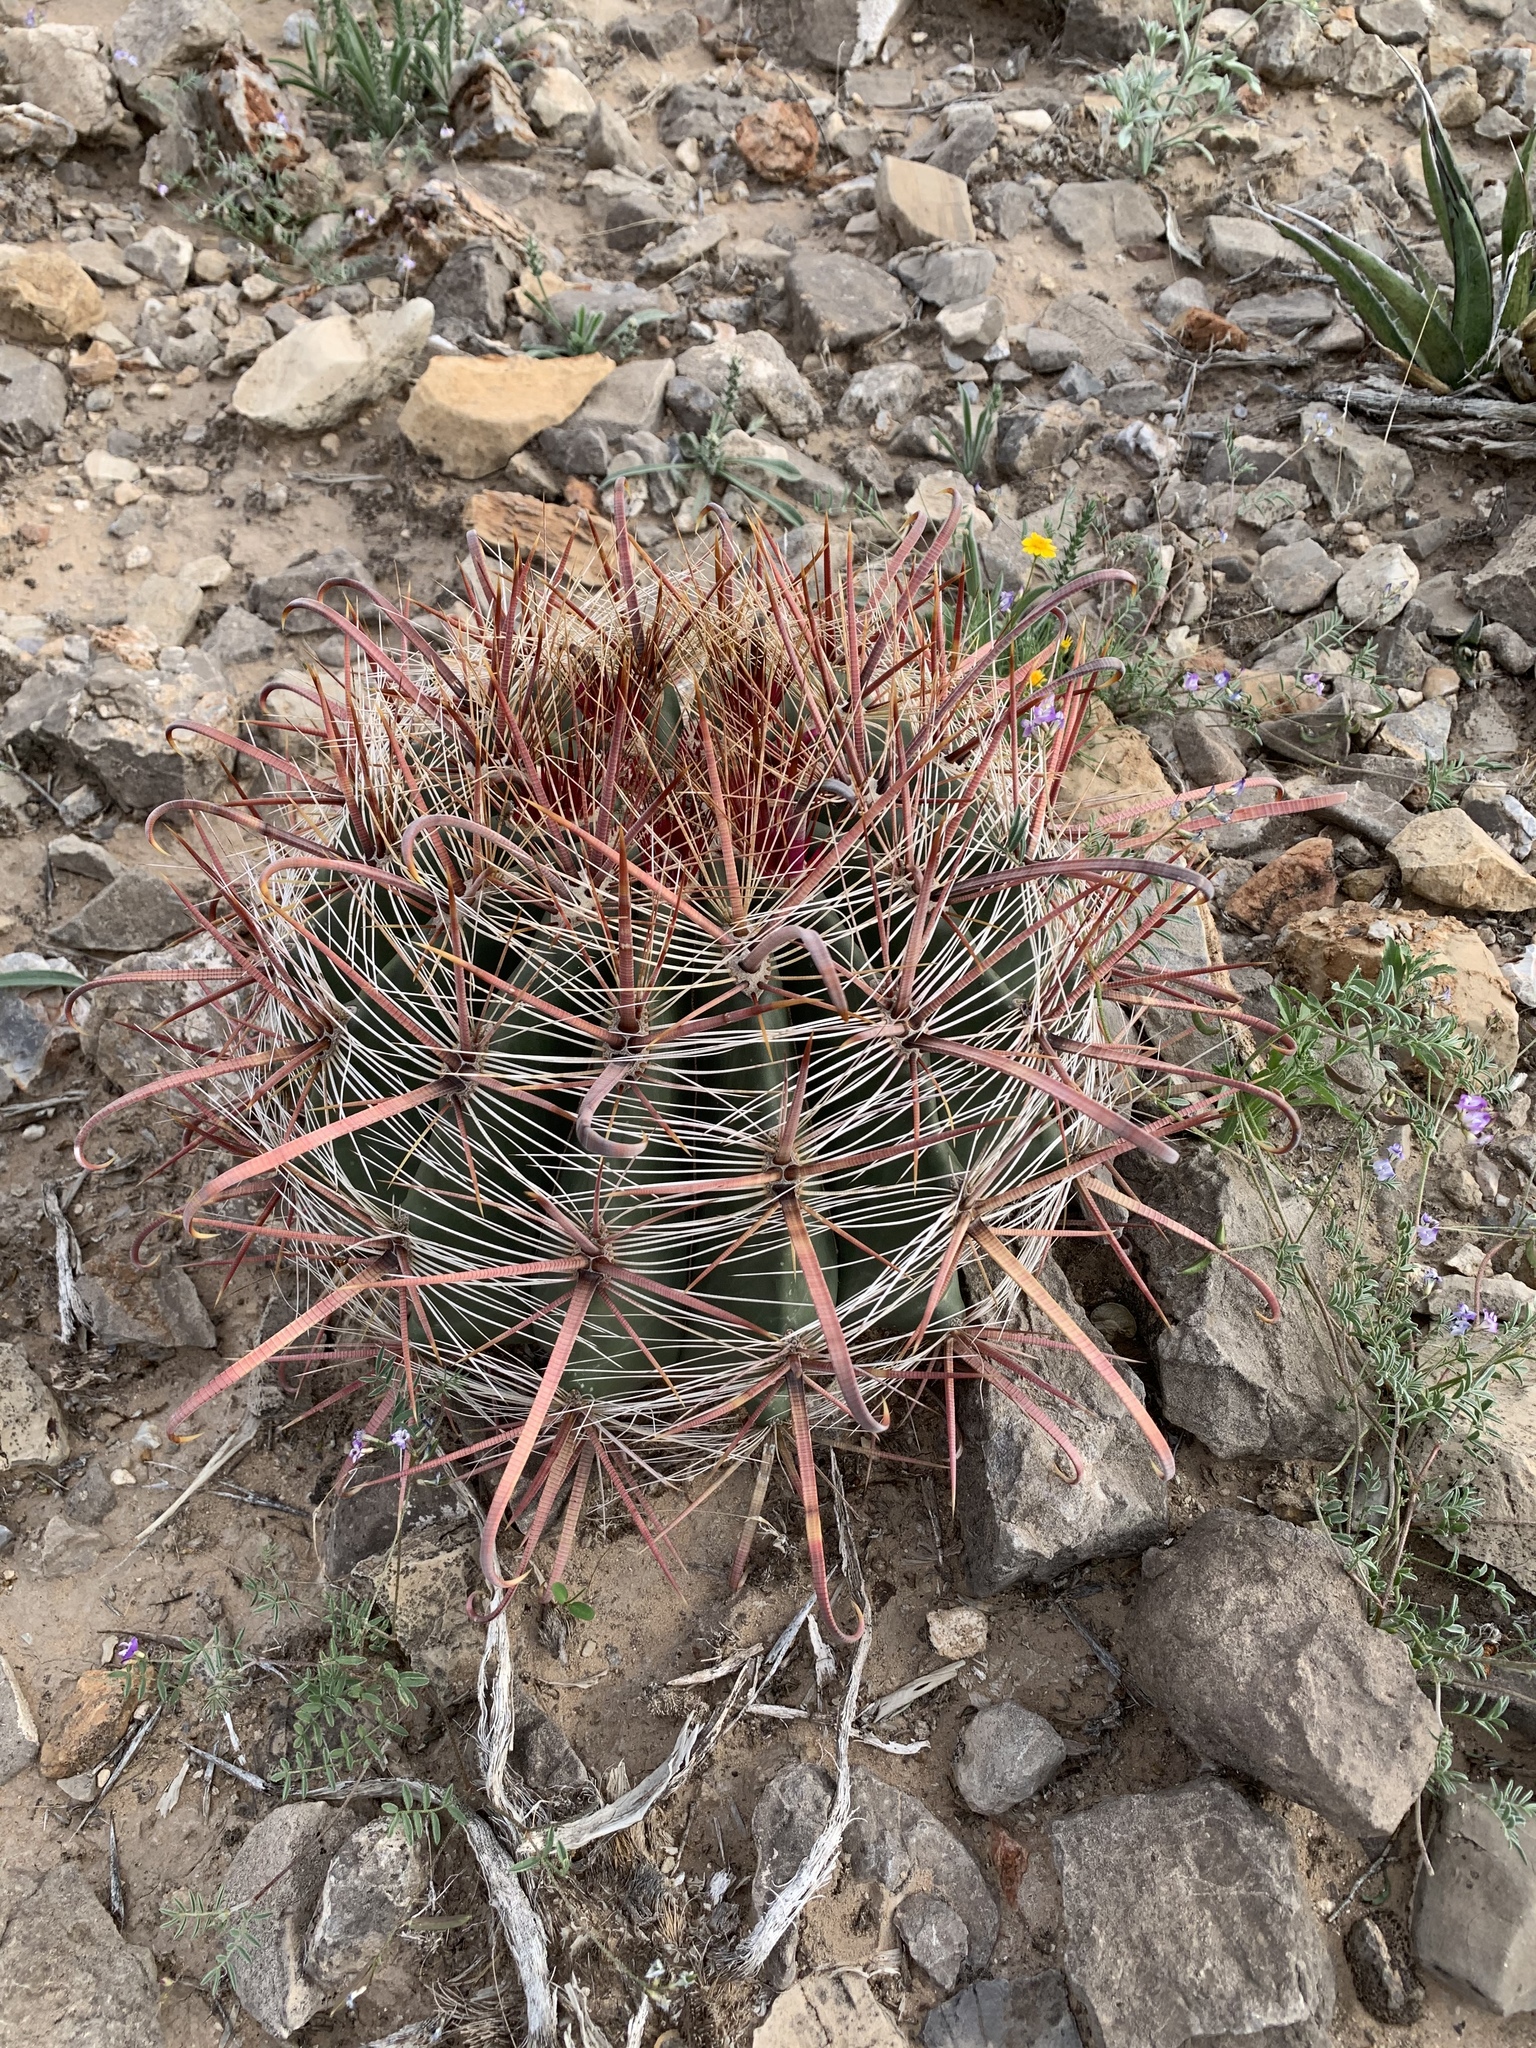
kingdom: Plantae
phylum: Tracheophyta
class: Magnoliopsida
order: Caryophyllales
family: Cactaceae
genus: Ferocactus
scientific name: Ferocactus wislizeni
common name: Candy barrel cactus
